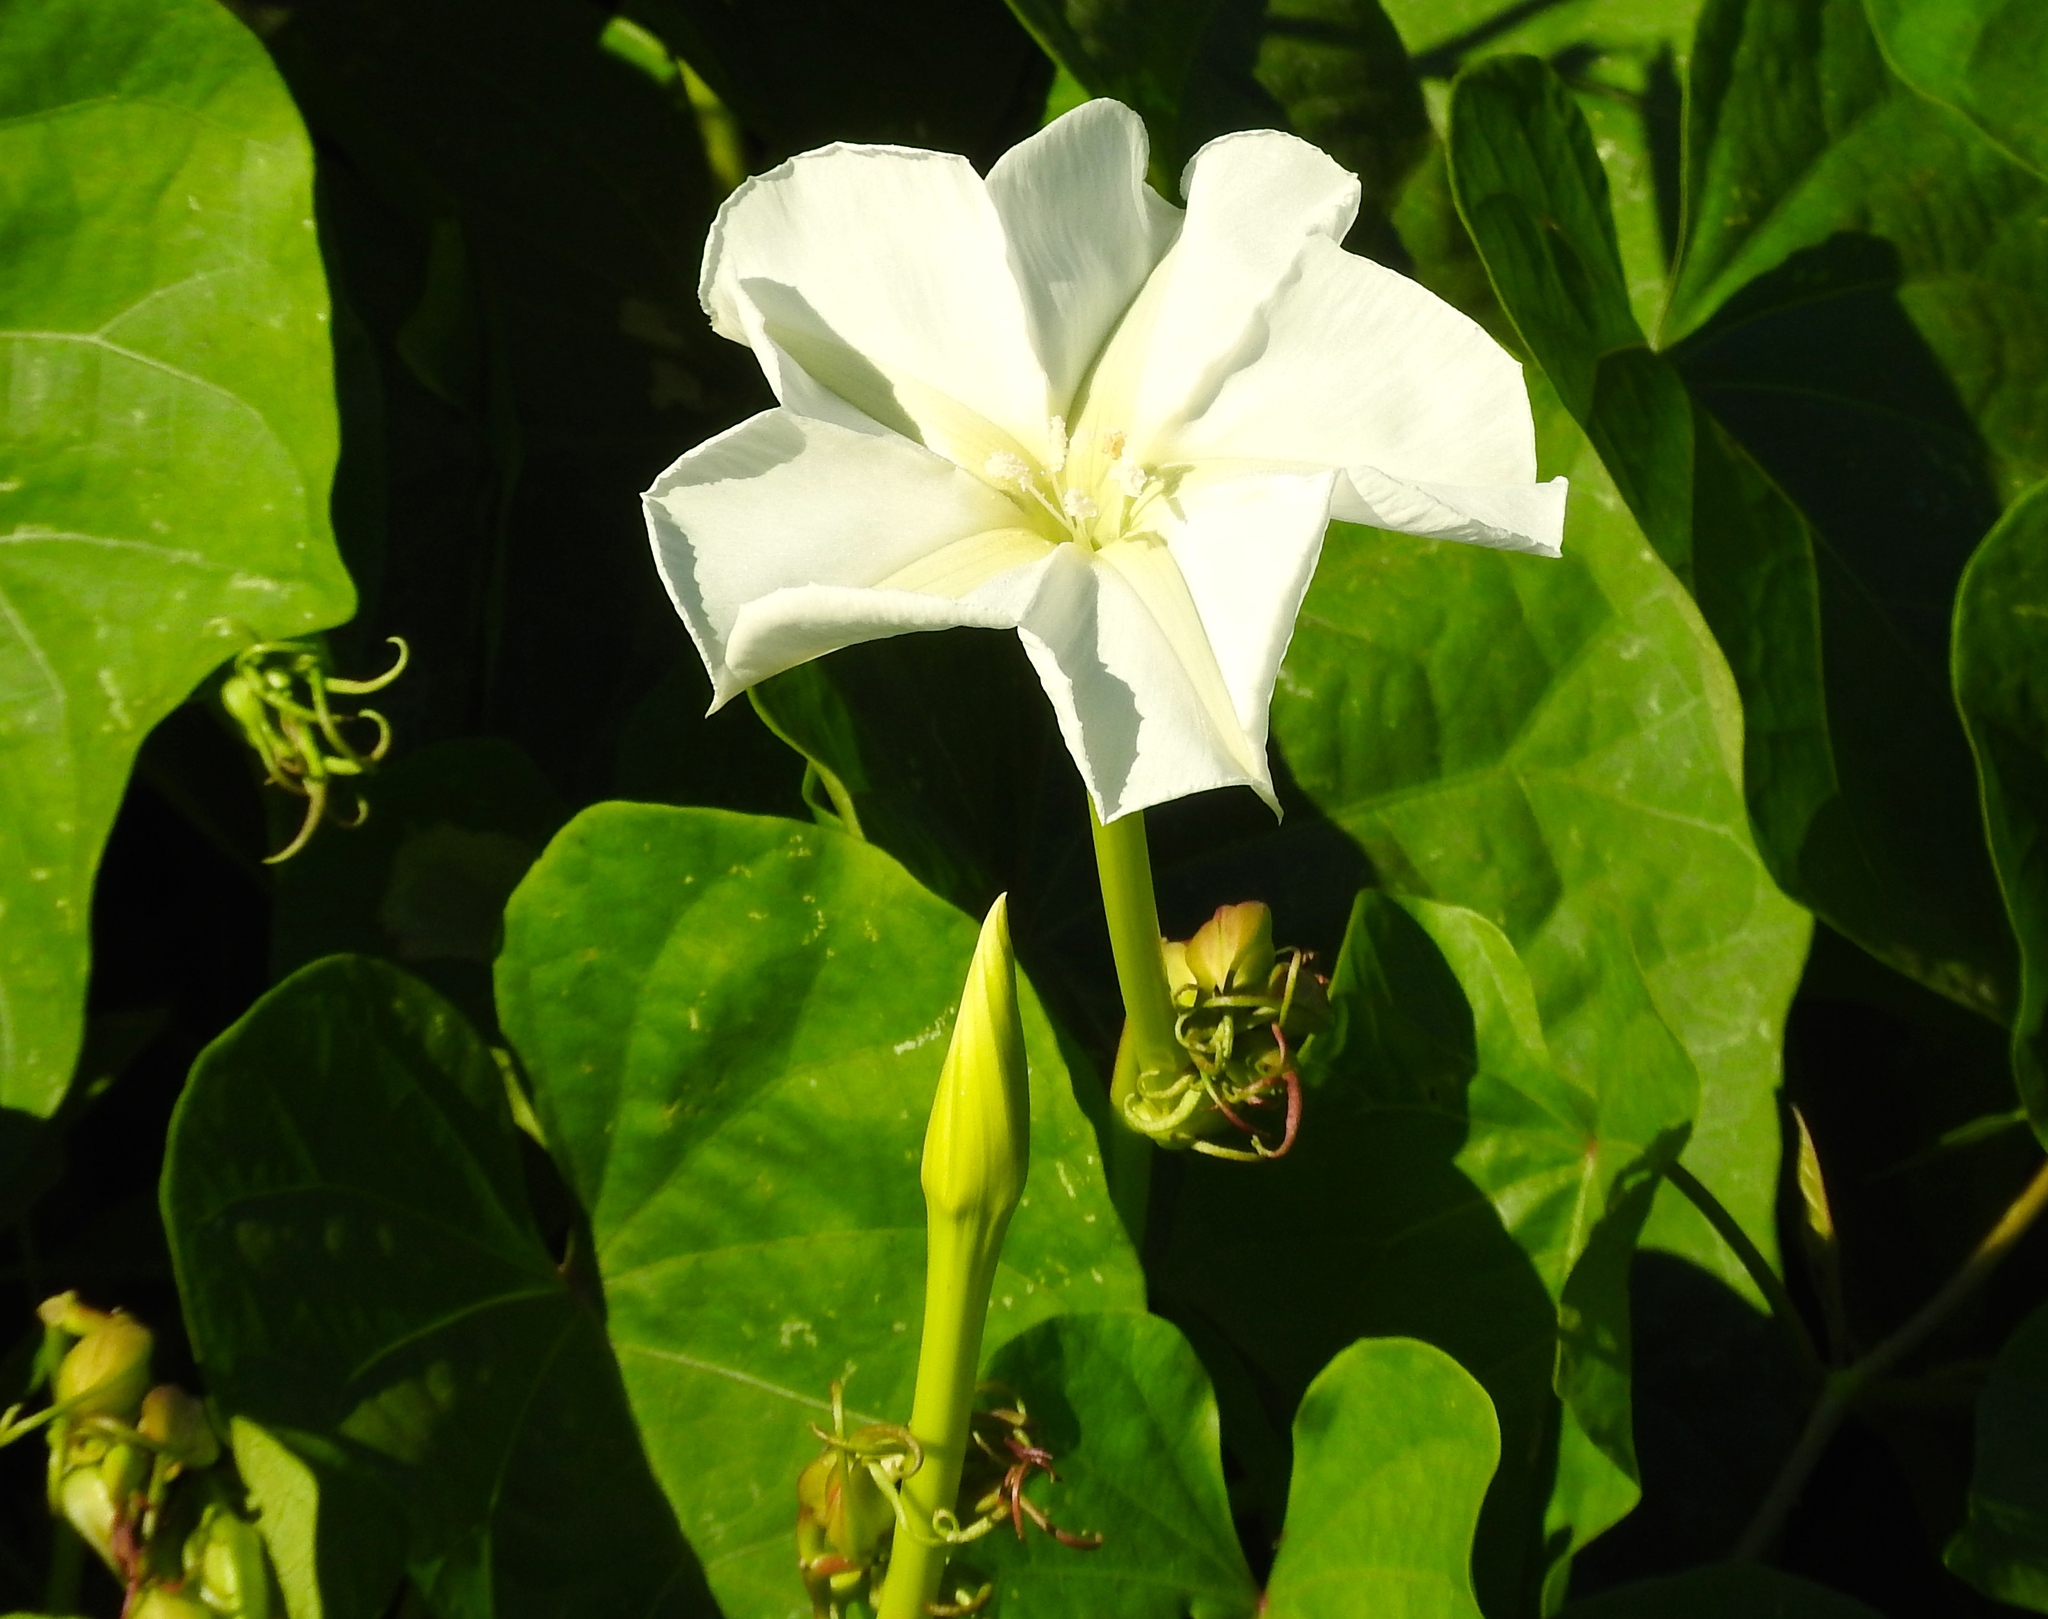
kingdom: Plantae
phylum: Tracheophyta
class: Magnoliopsida
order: Solanales
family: Convolvulaceae
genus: Ipomoea
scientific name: Ipomoea alba
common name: Moonflower
